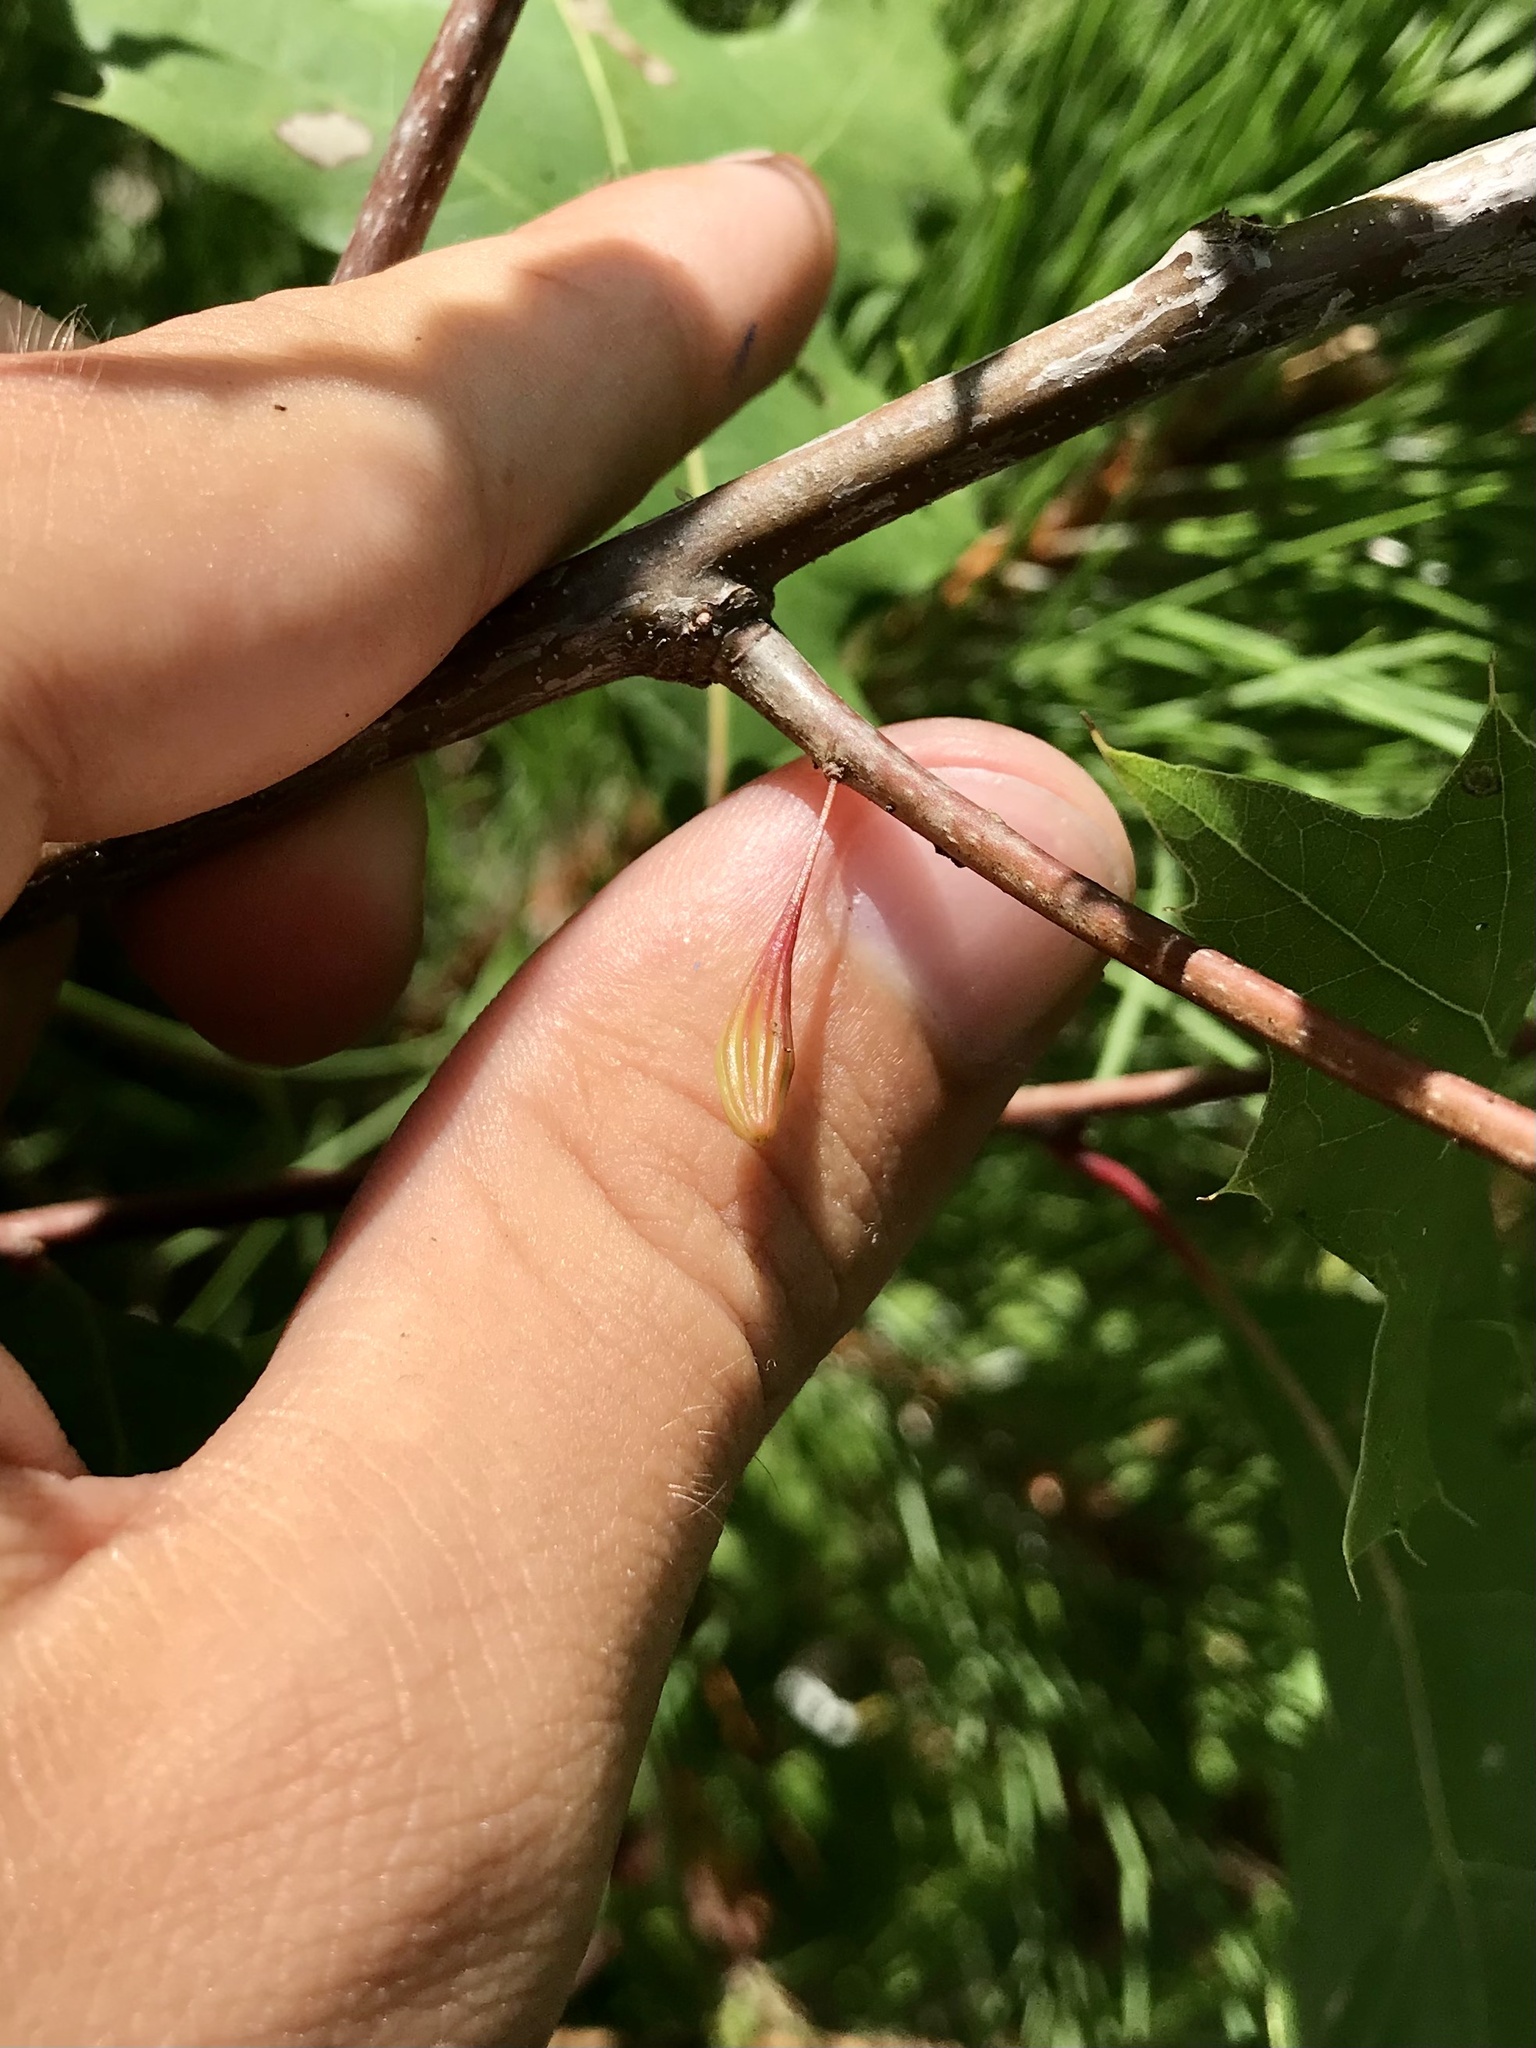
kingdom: Animalia
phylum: Arthropoda
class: Insecta
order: Hymenoptera
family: Cynipidae
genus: Callirhytis
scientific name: Callirhytis
